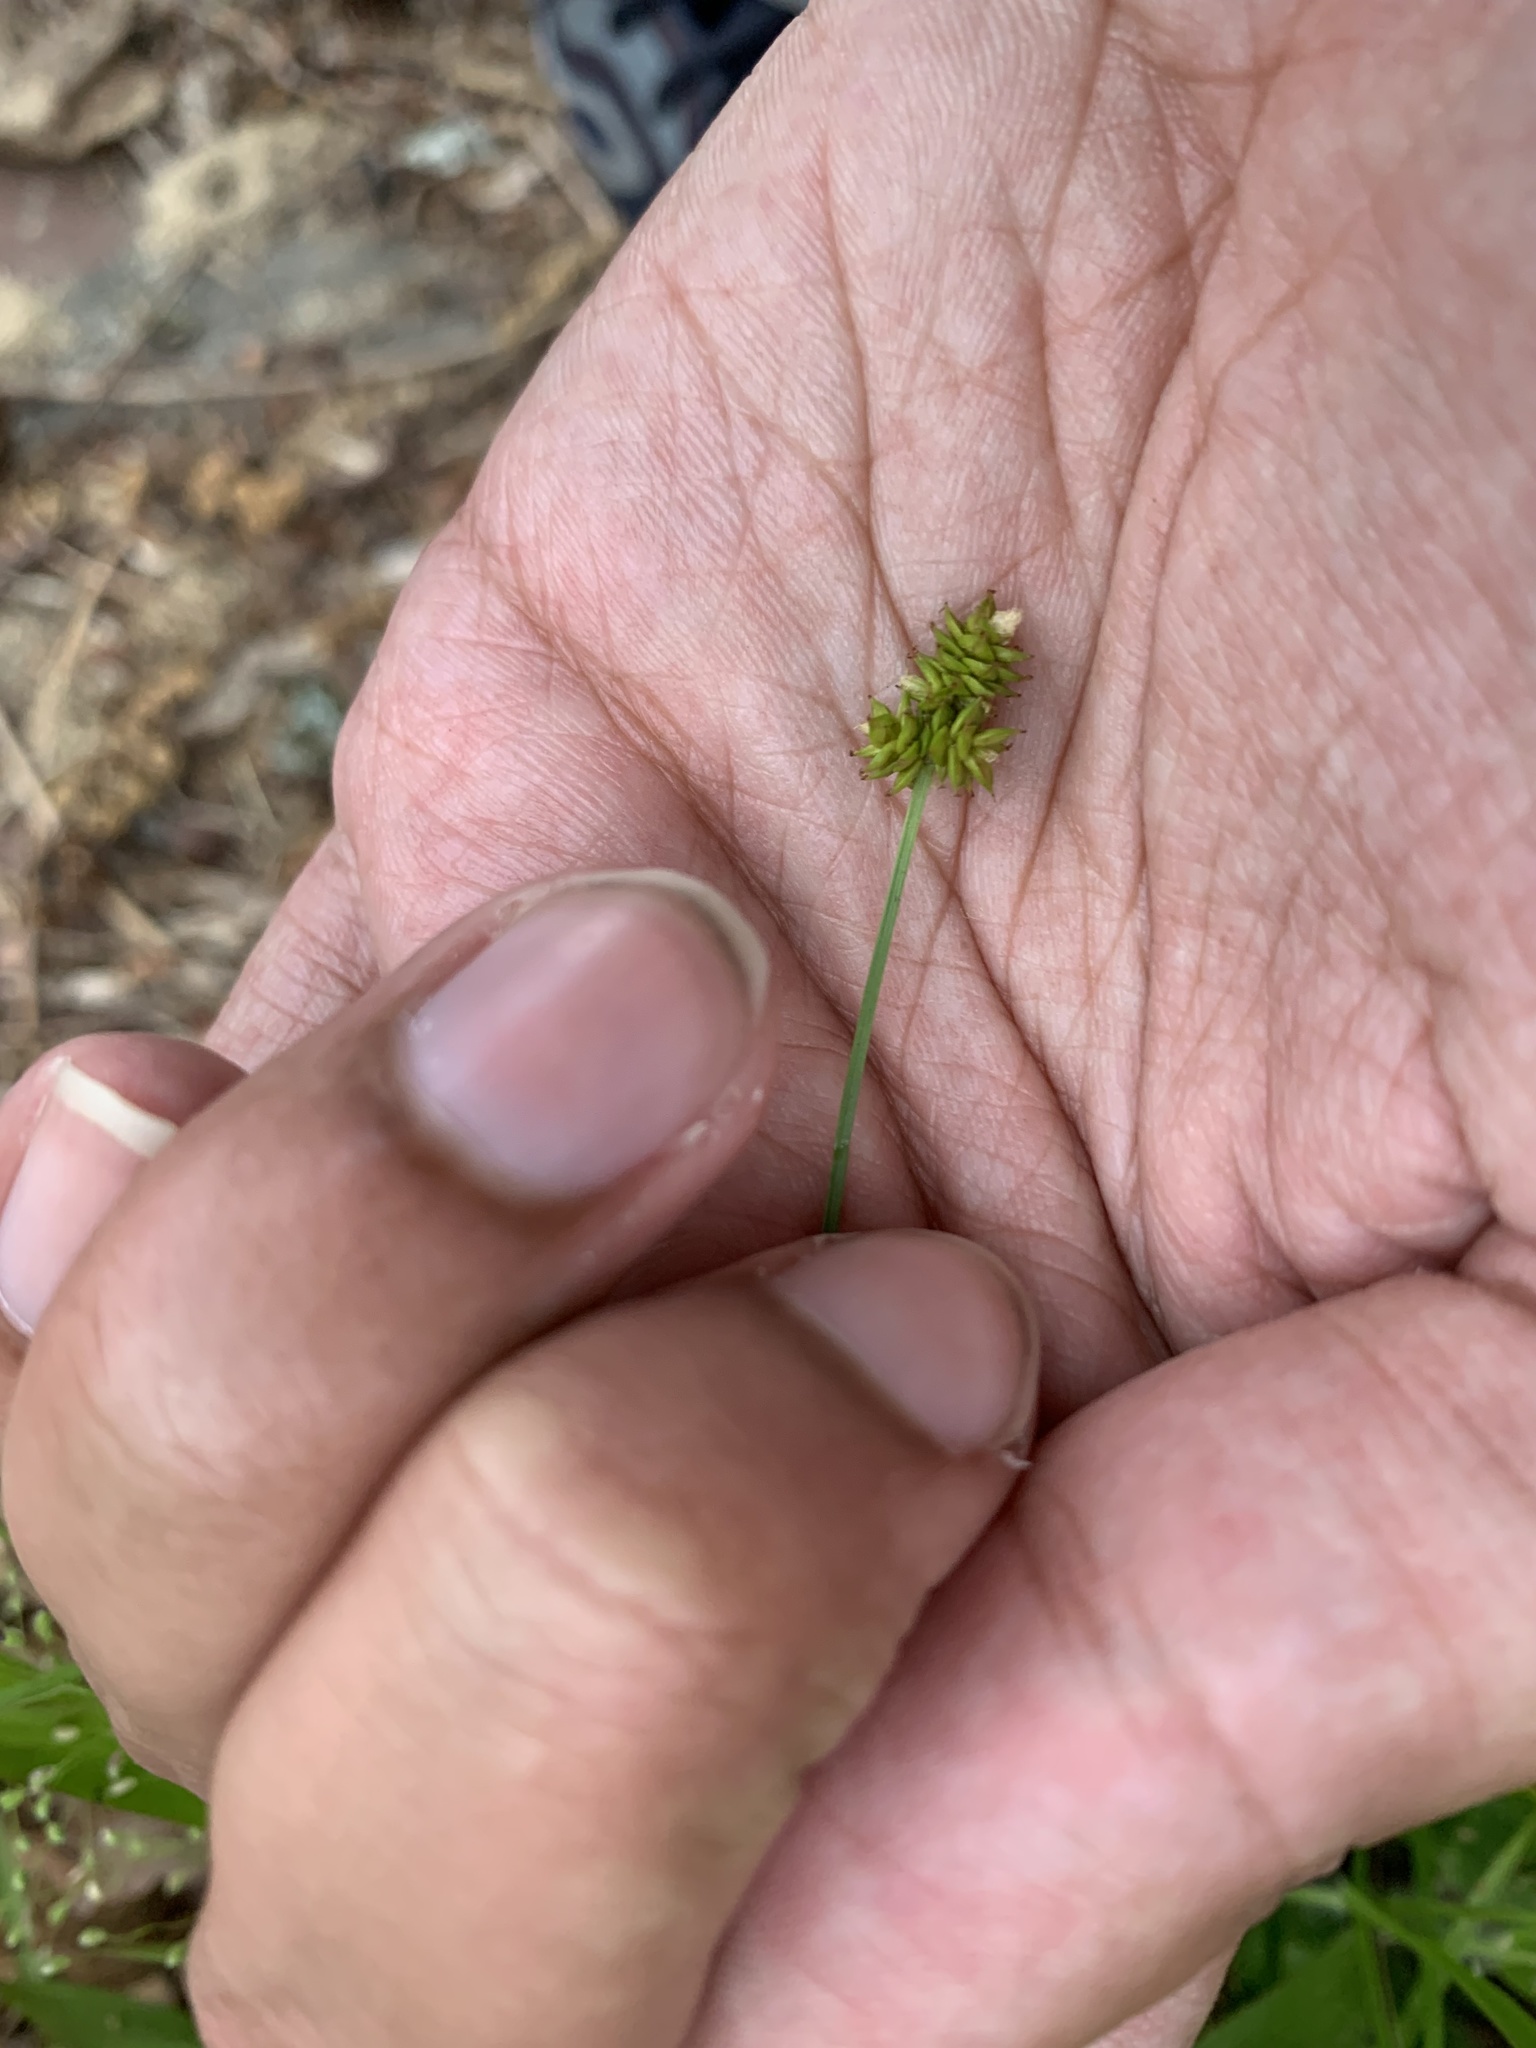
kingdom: Plantae
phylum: Tracheophyta
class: Liliopsida
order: Poales
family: Cyperaceae
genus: Carex
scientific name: Carex cephalophora
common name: Oval-headed sedge
